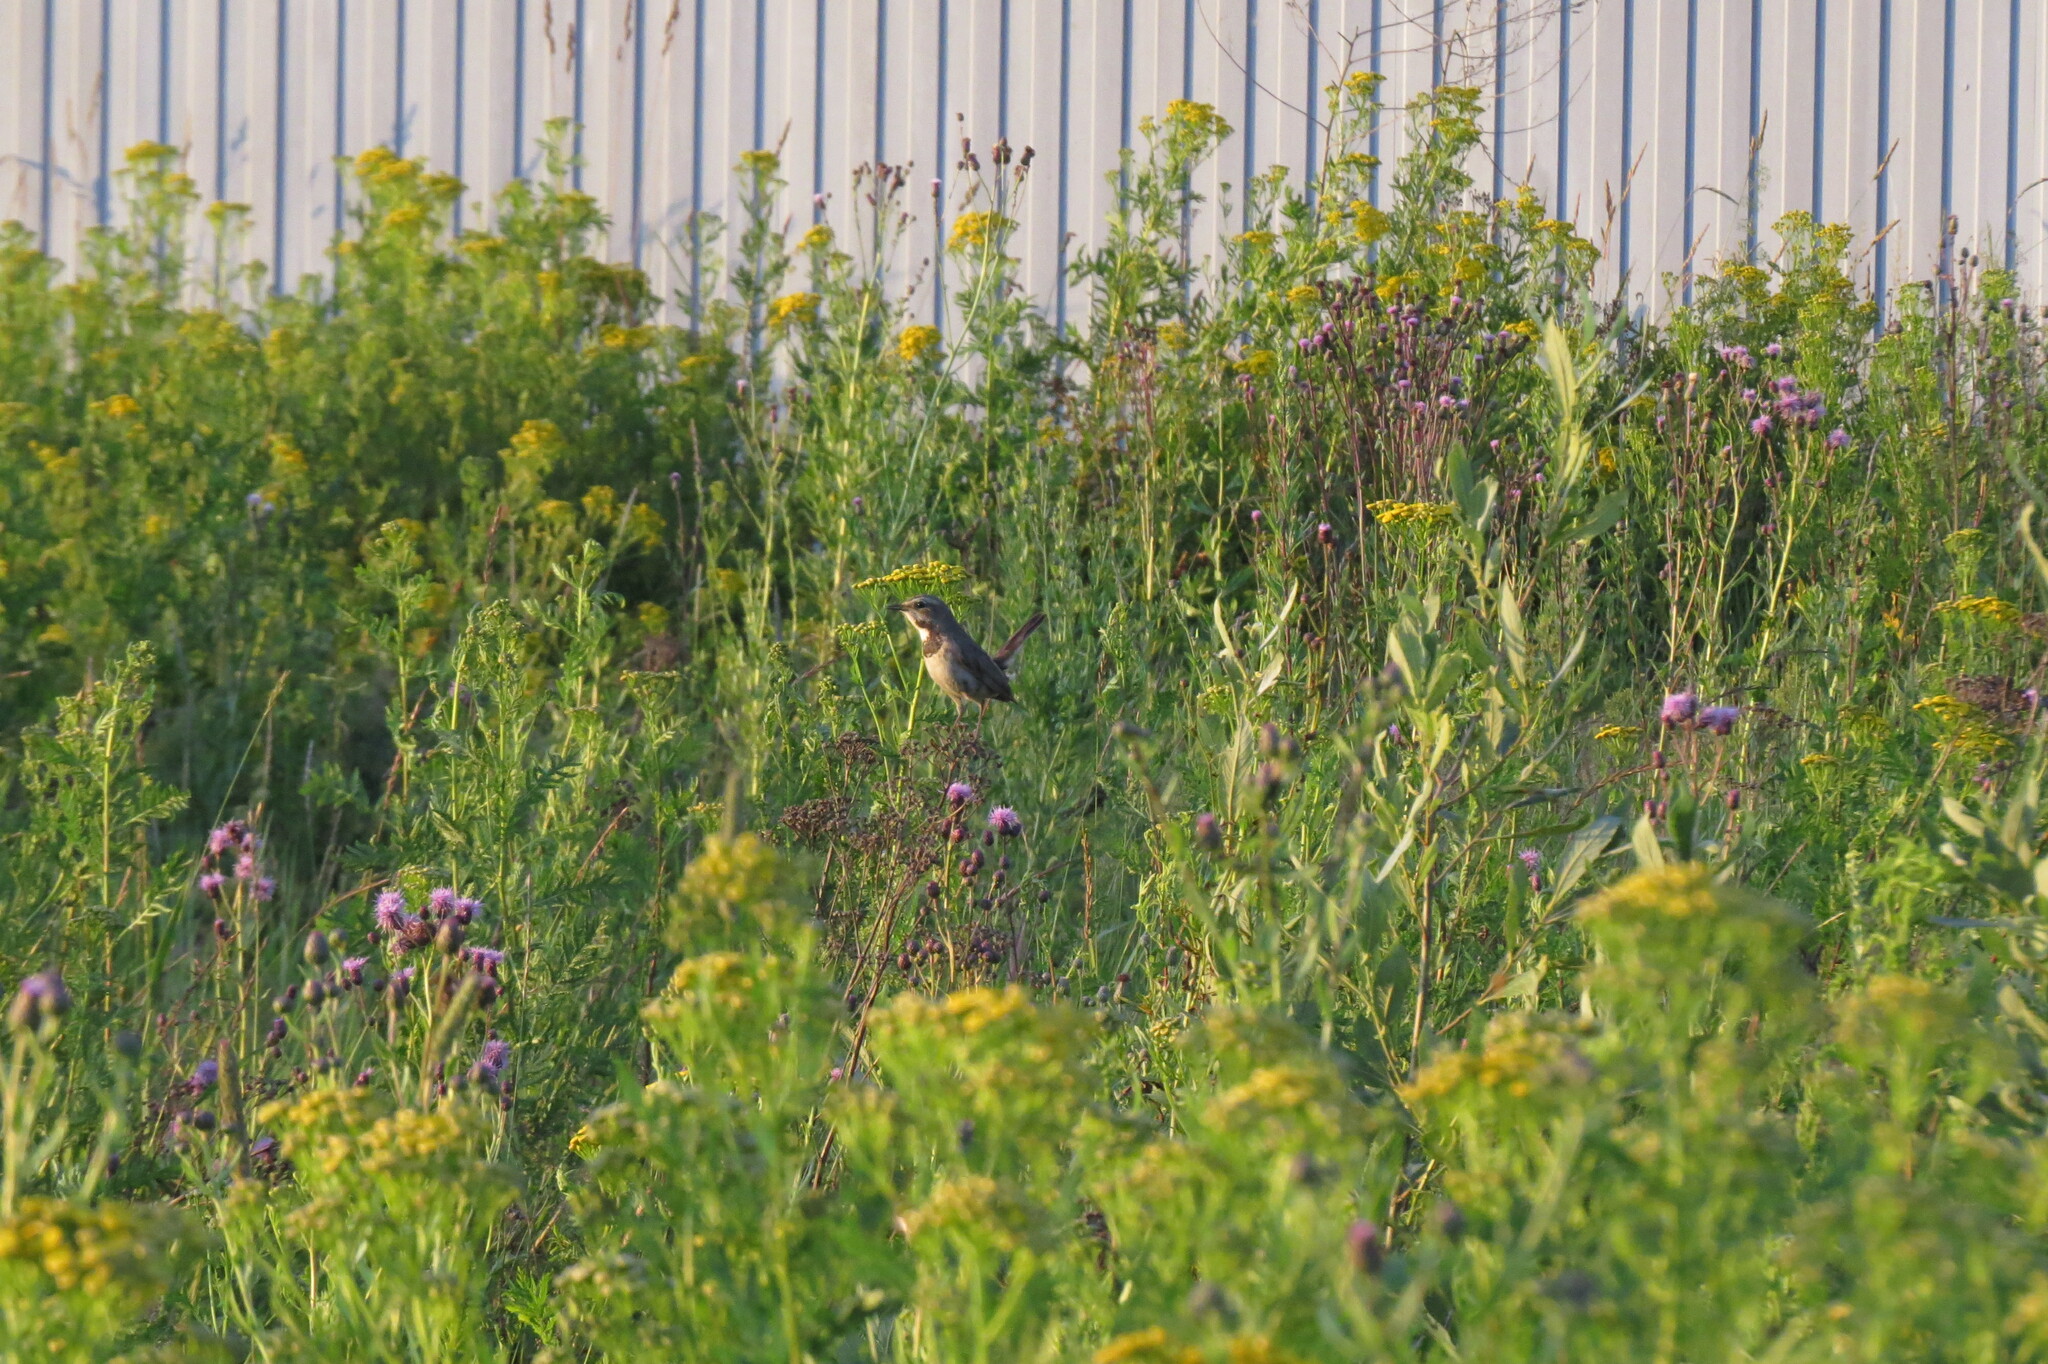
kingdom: Animalia
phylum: Chordata
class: Aves
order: Passeriformes
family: Muscicapidae
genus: Luscinia
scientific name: Luscinia svecica
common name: Bluethroat
